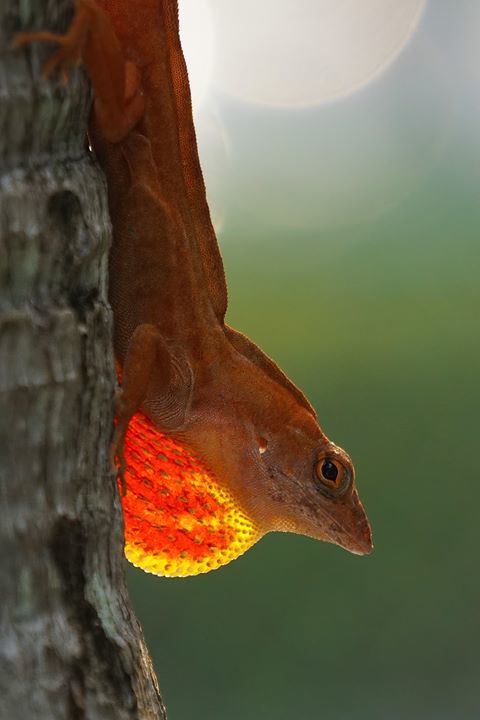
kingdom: Animalia
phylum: Chordata
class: Squamata
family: Dactyloidae
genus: Anolis
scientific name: Anolis sagrei
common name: Brown anole
